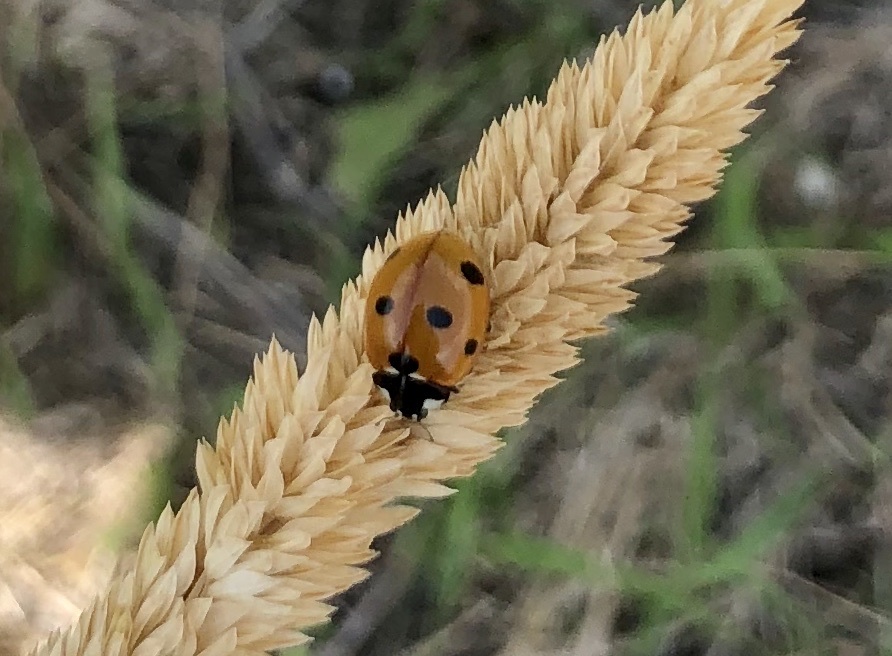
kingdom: Animalia
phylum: Arthropoda
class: Insecta
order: Coleoptera
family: Coccinellidae
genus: Coccinella
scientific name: Coccinella septempunctata
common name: Sevenspotted lady beetle
